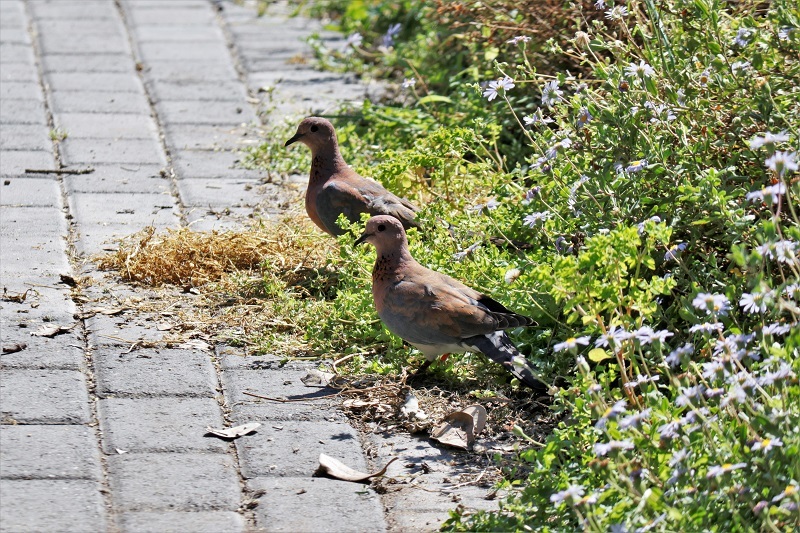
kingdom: Animalia
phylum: Chordata
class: Aves
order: Columbiformes
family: Columbidae
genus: Spilopelia
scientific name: Spilopelia senegalensis
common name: Laughing dove
